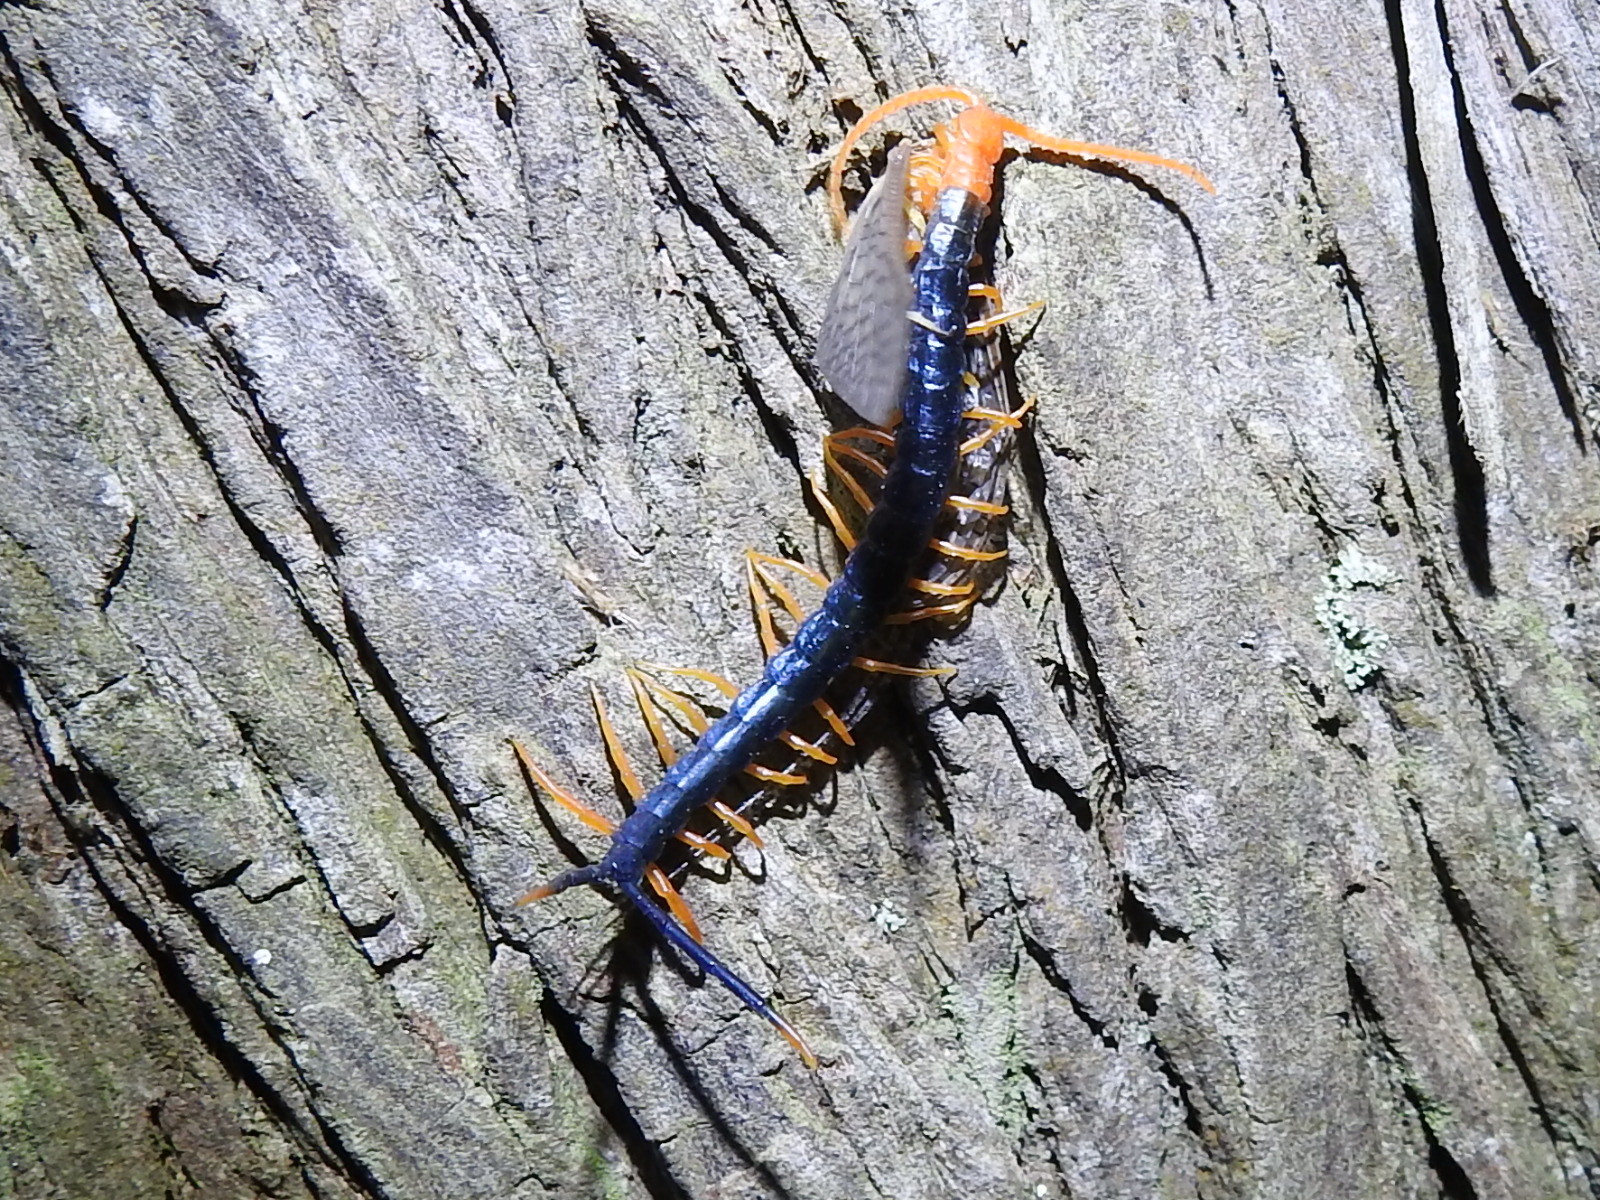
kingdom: Animalia
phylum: Arthropoda
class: Chilopoda
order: Scolopendromorpha
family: Scolopendridae
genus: Scolopendra
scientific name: Scolopendra heros
